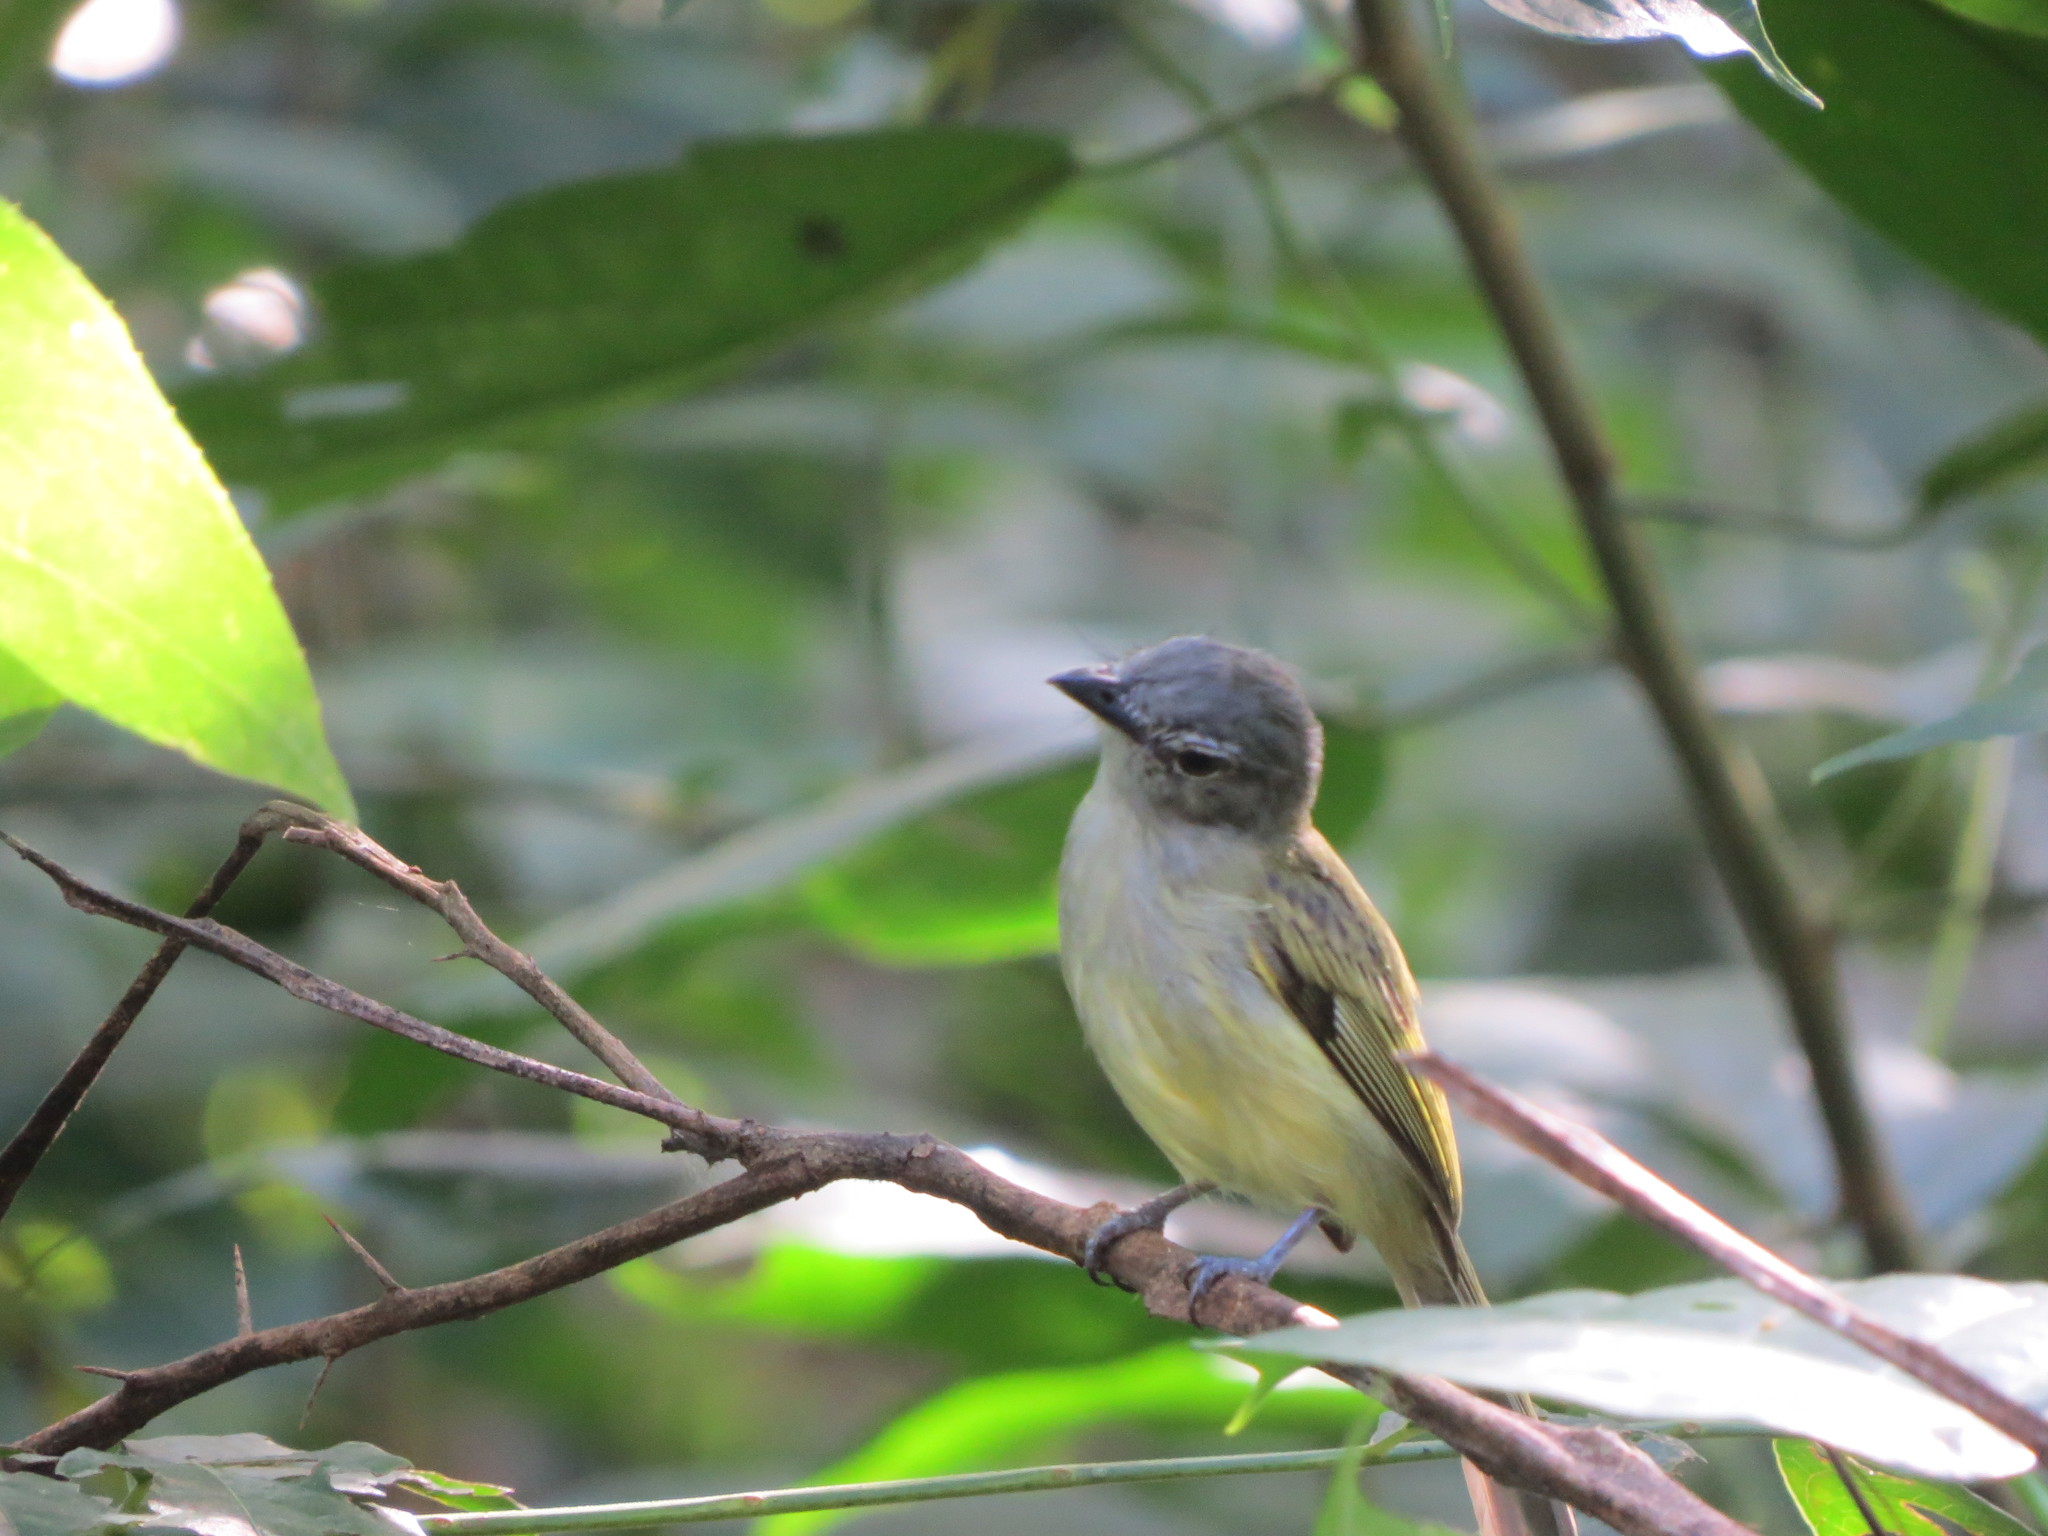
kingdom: Animalia
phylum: Chordata
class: Aves
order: Passeriformes
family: Tyrannidae
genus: Tolmomyias
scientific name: Tolmomyias sulphurescens
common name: Yellow-olive flycatcher
